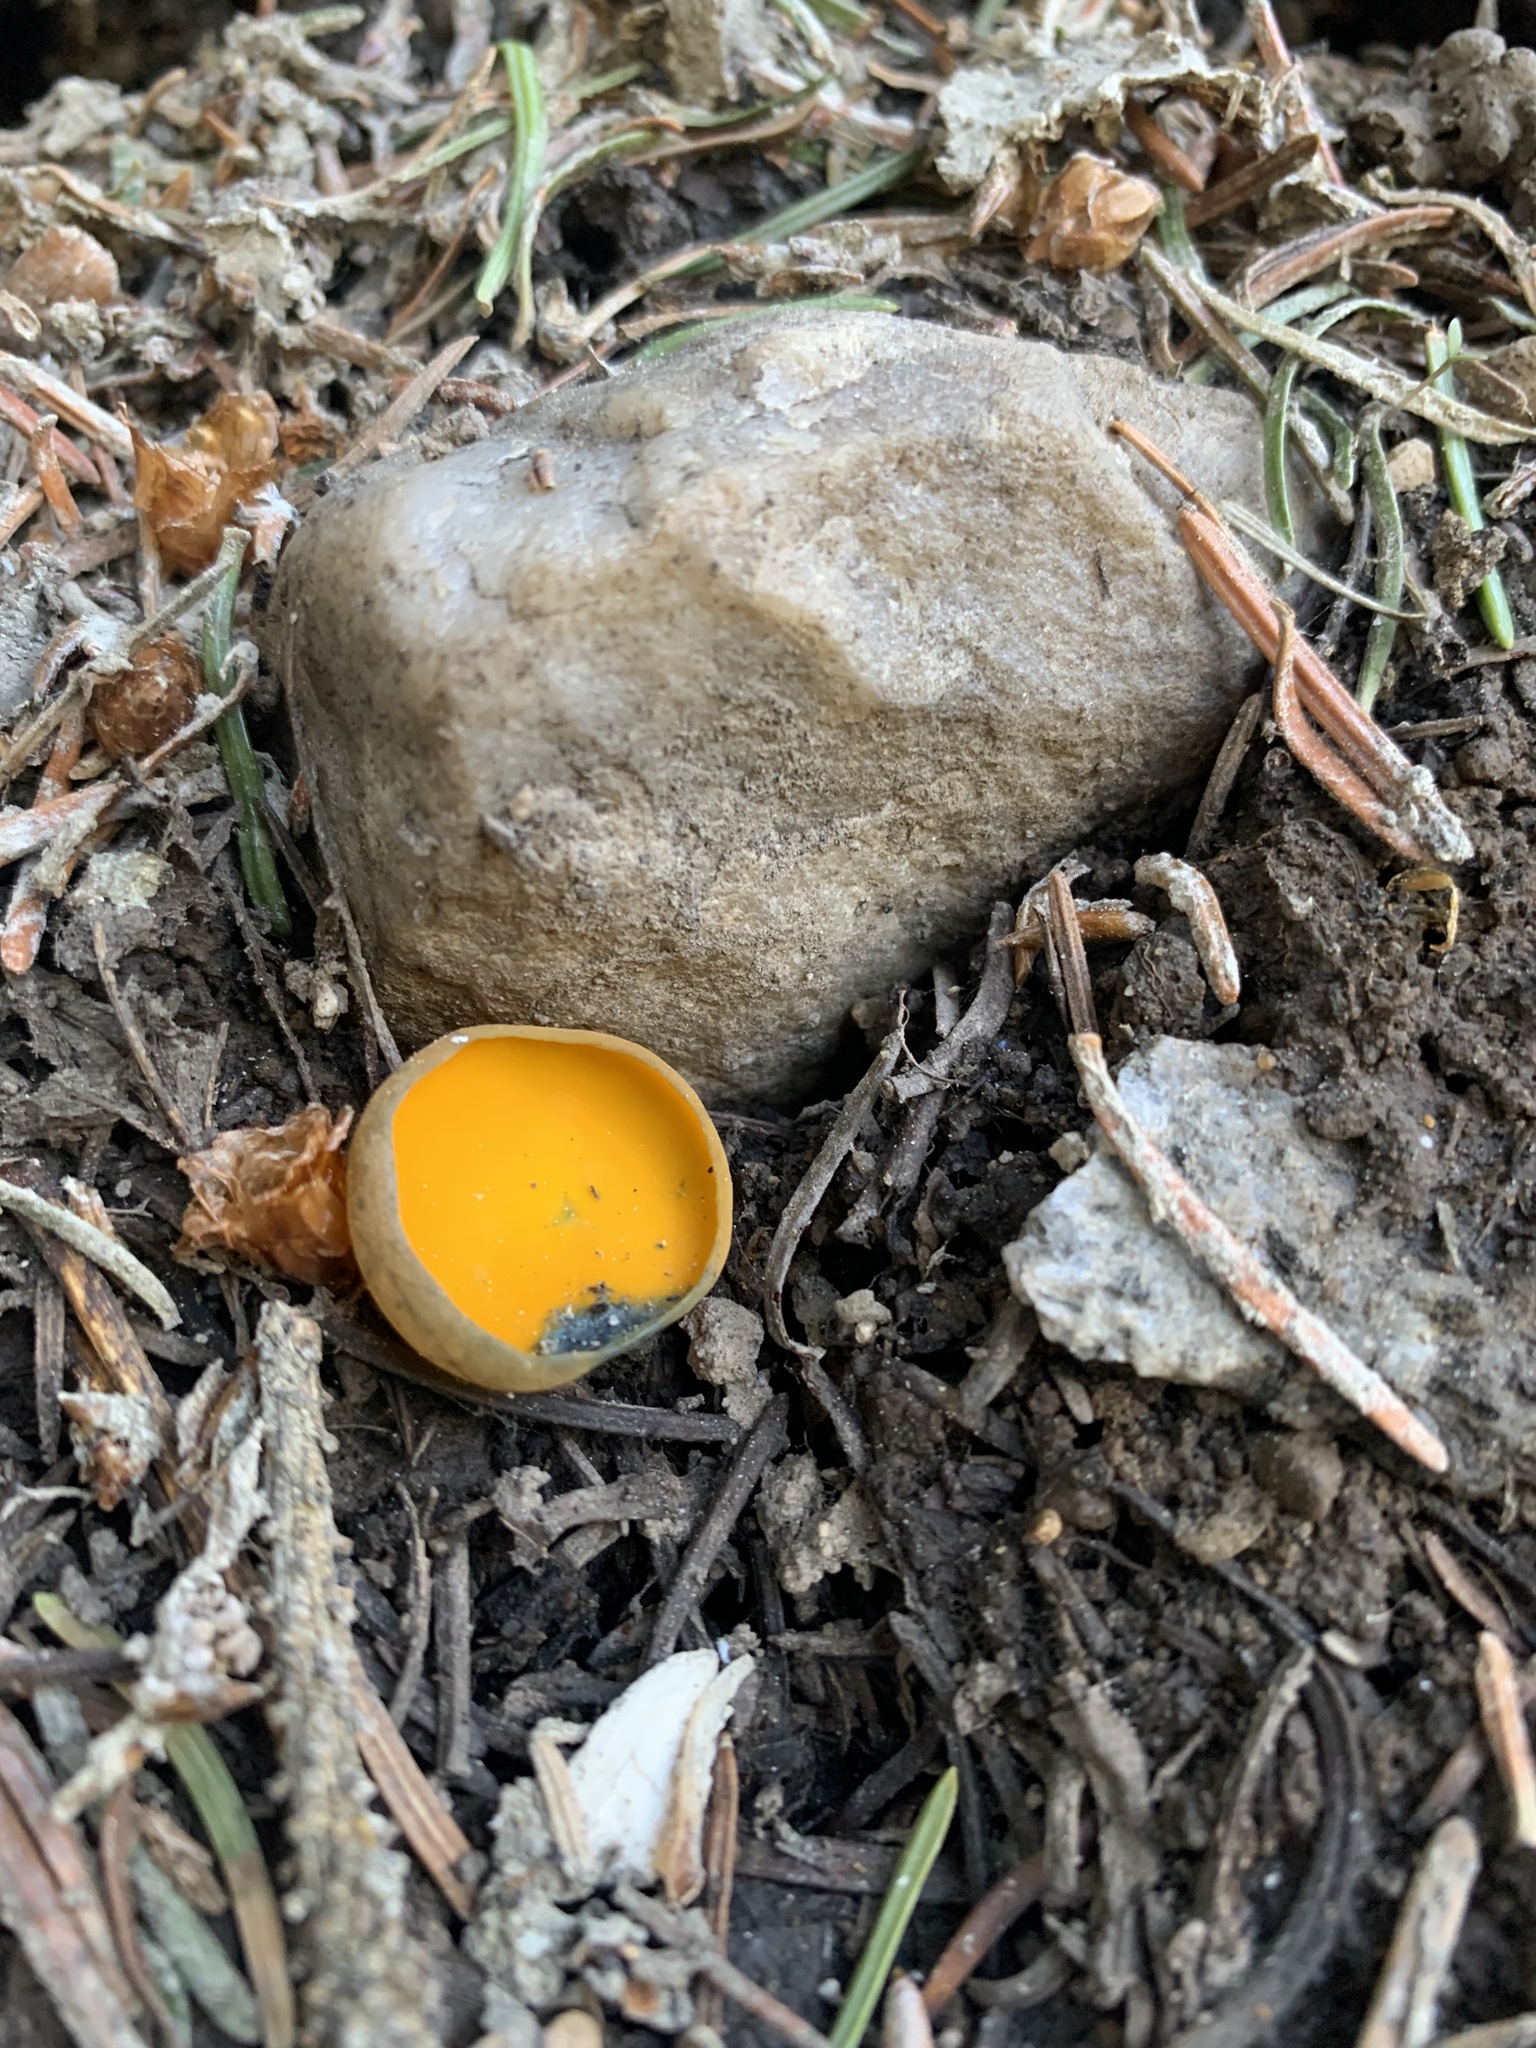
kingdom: Fungi
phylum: Ascomycota
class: Pezizomycetes
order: Pezizales
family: Caloscyphaceae
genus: Caloscypha
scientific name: Caloscypha fulgens
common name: Golden cup
